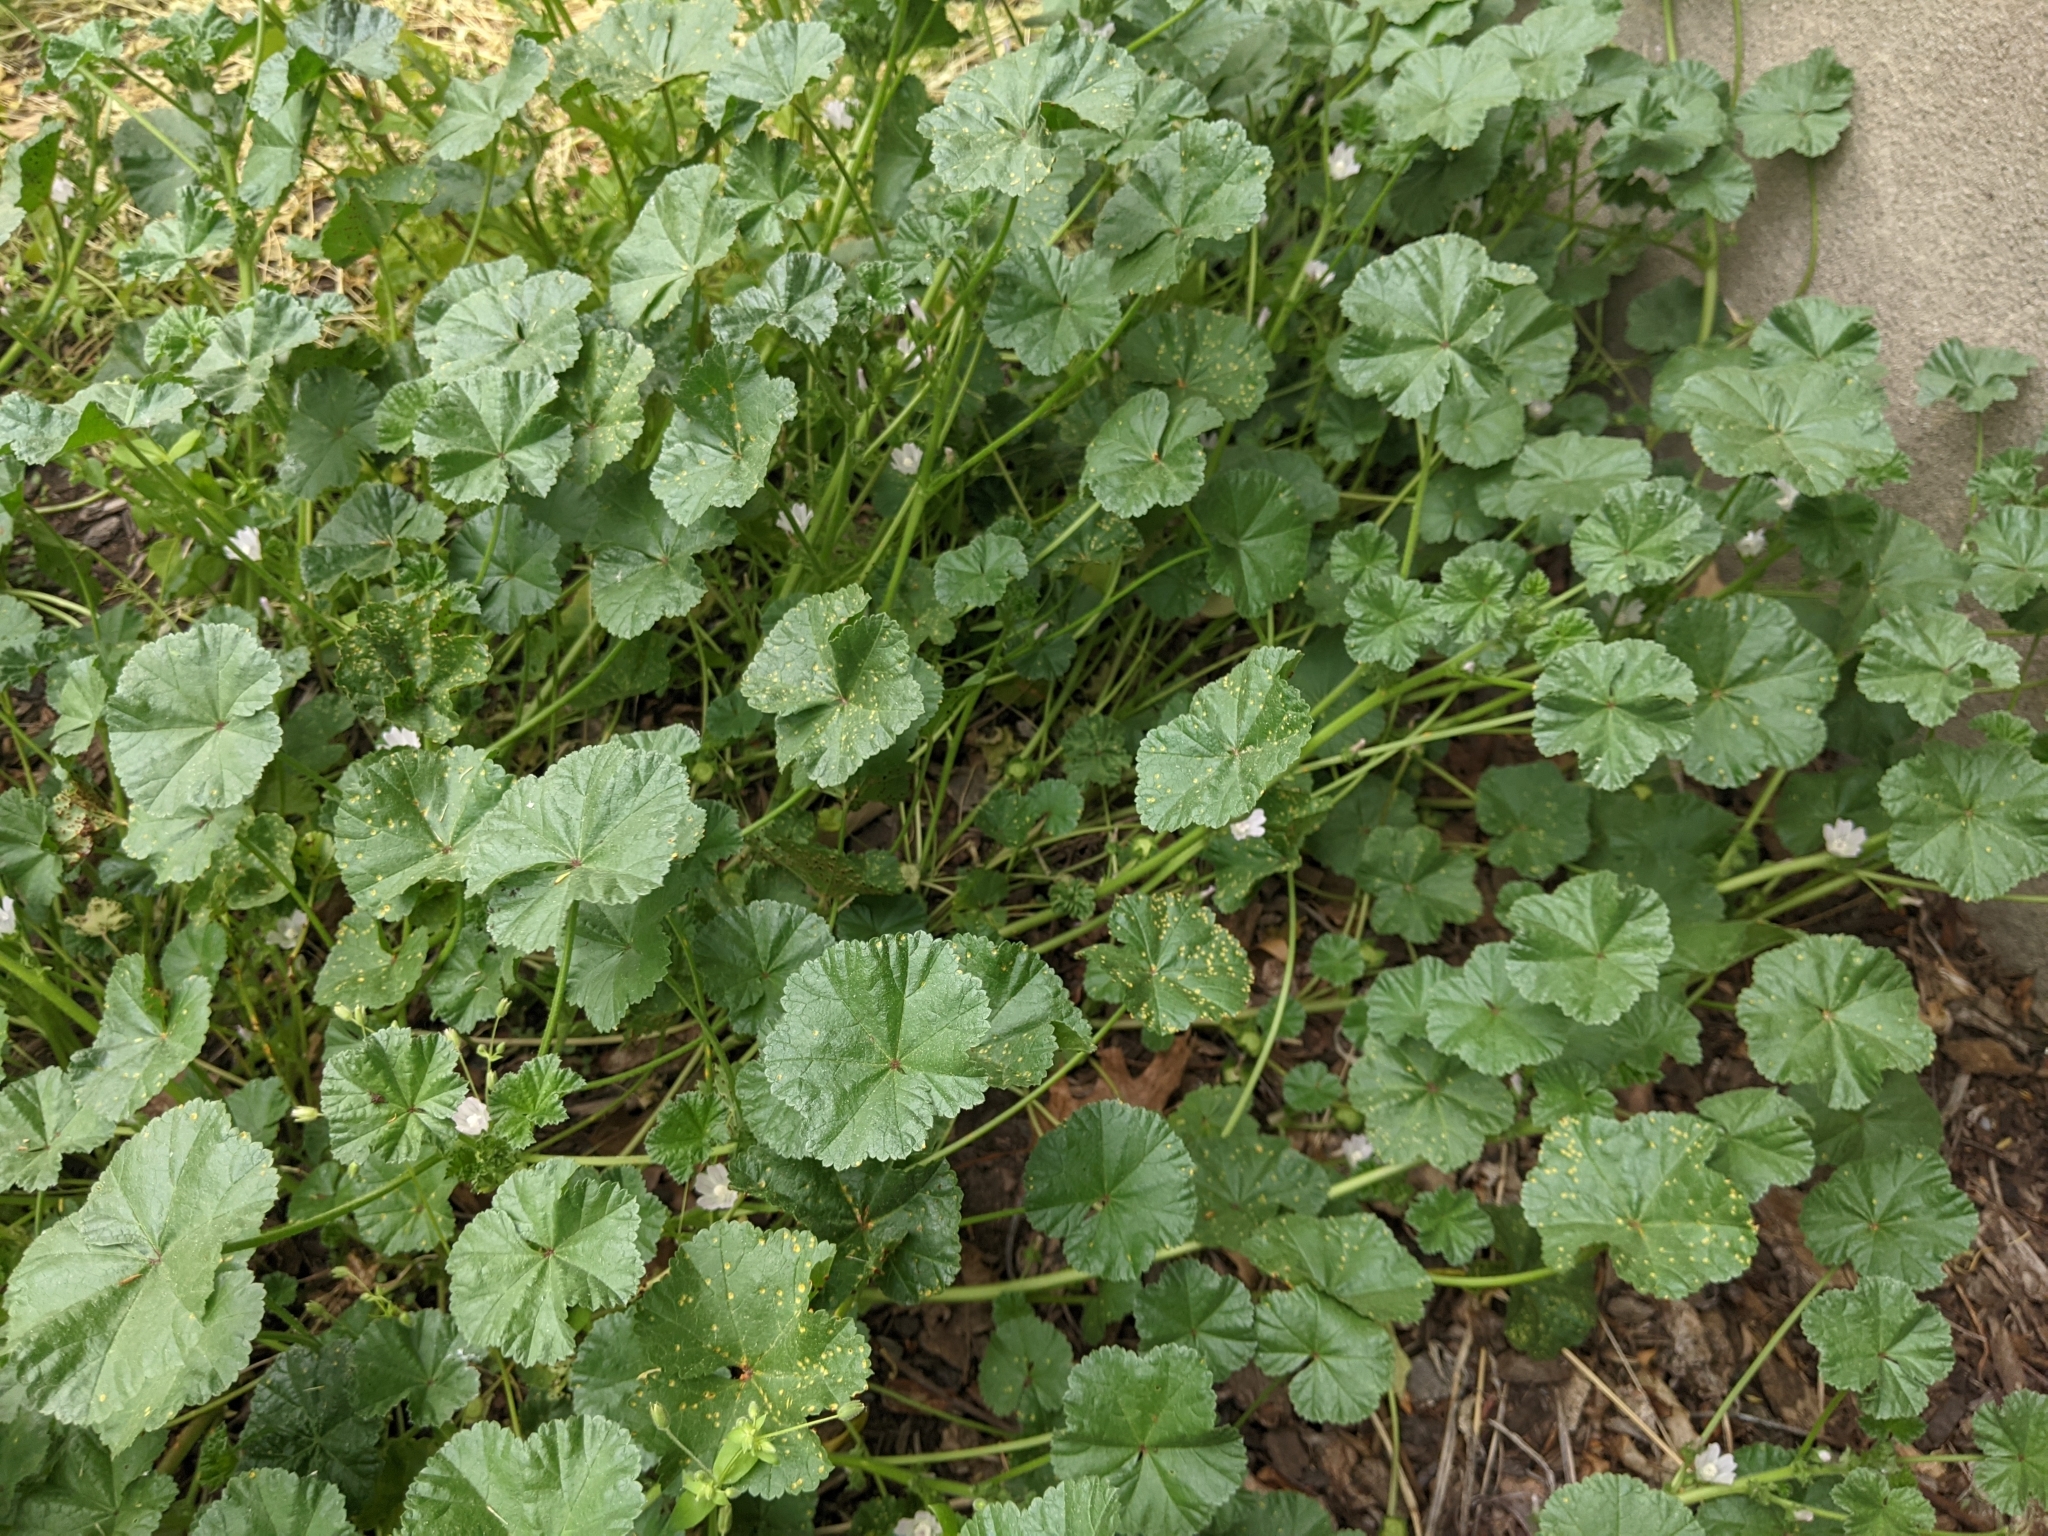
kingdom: Plantae
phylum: Tracheophyta
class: Magnoliopsida
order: Malvales
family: Malvaceae
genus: Malva
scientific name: Malva neglecta
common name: Common mallow
